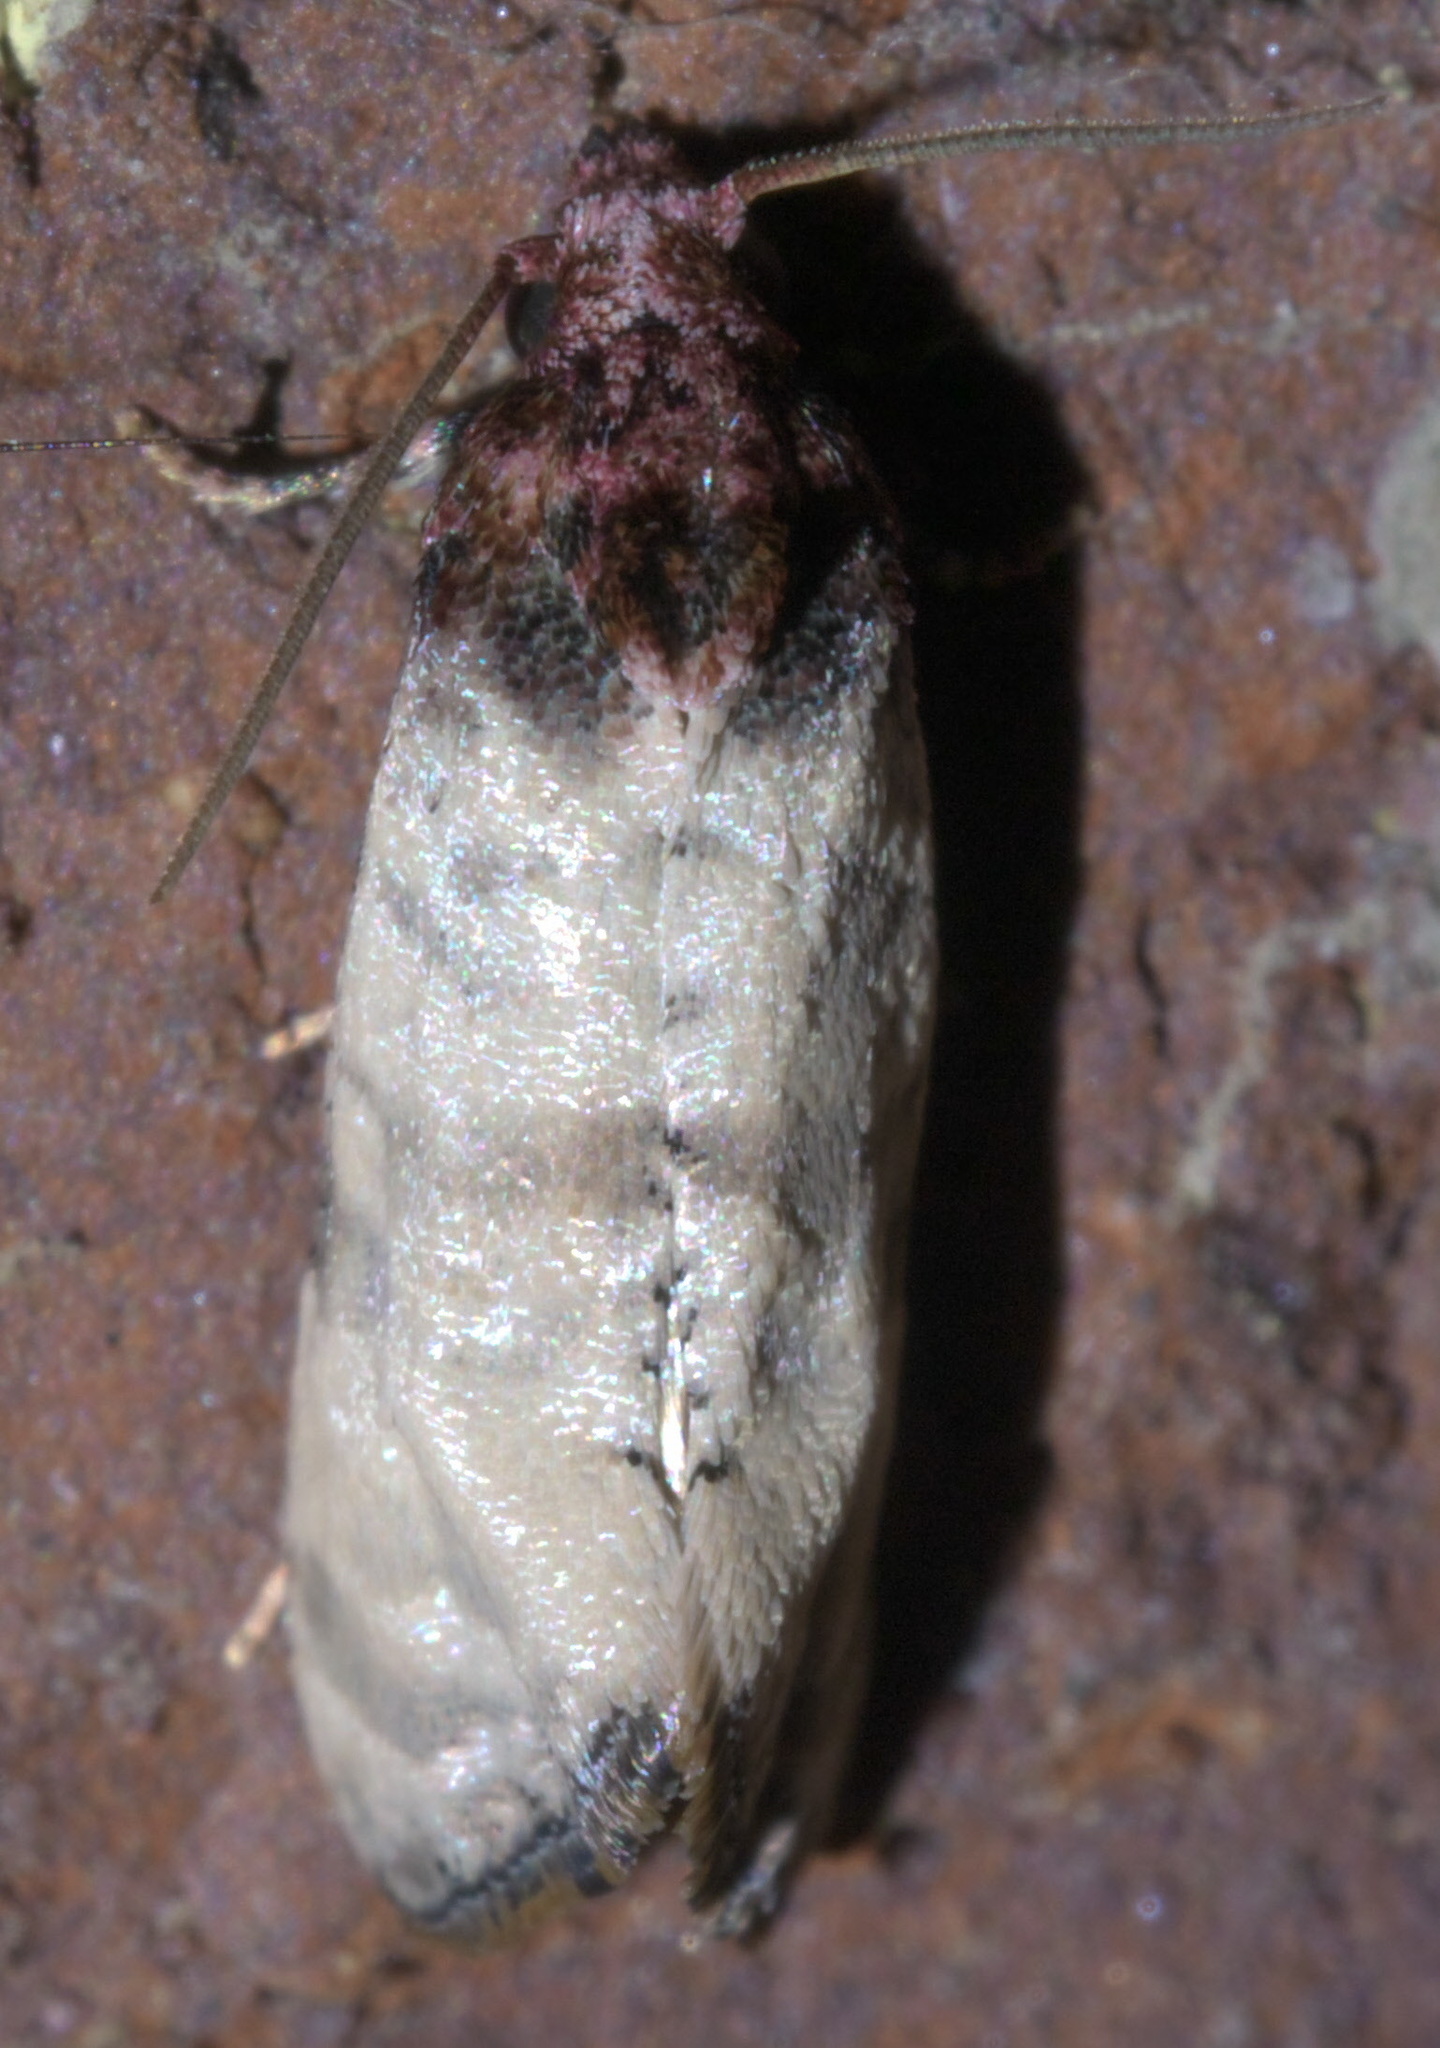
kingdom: Animalia
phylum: Arthropoda
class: Insecta
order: Lepidoptera
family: Tortricidae
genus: Phalonidia
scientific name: Phalonidia Platphalonidia lavana
